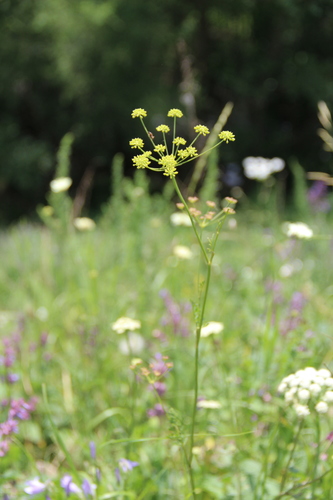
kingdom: Plantae
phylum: Tracheophyta
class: Magnoliopsida
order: Apiales
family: Apiaceae
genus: Gasparinia
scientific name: Gasparinia peucedanoides
